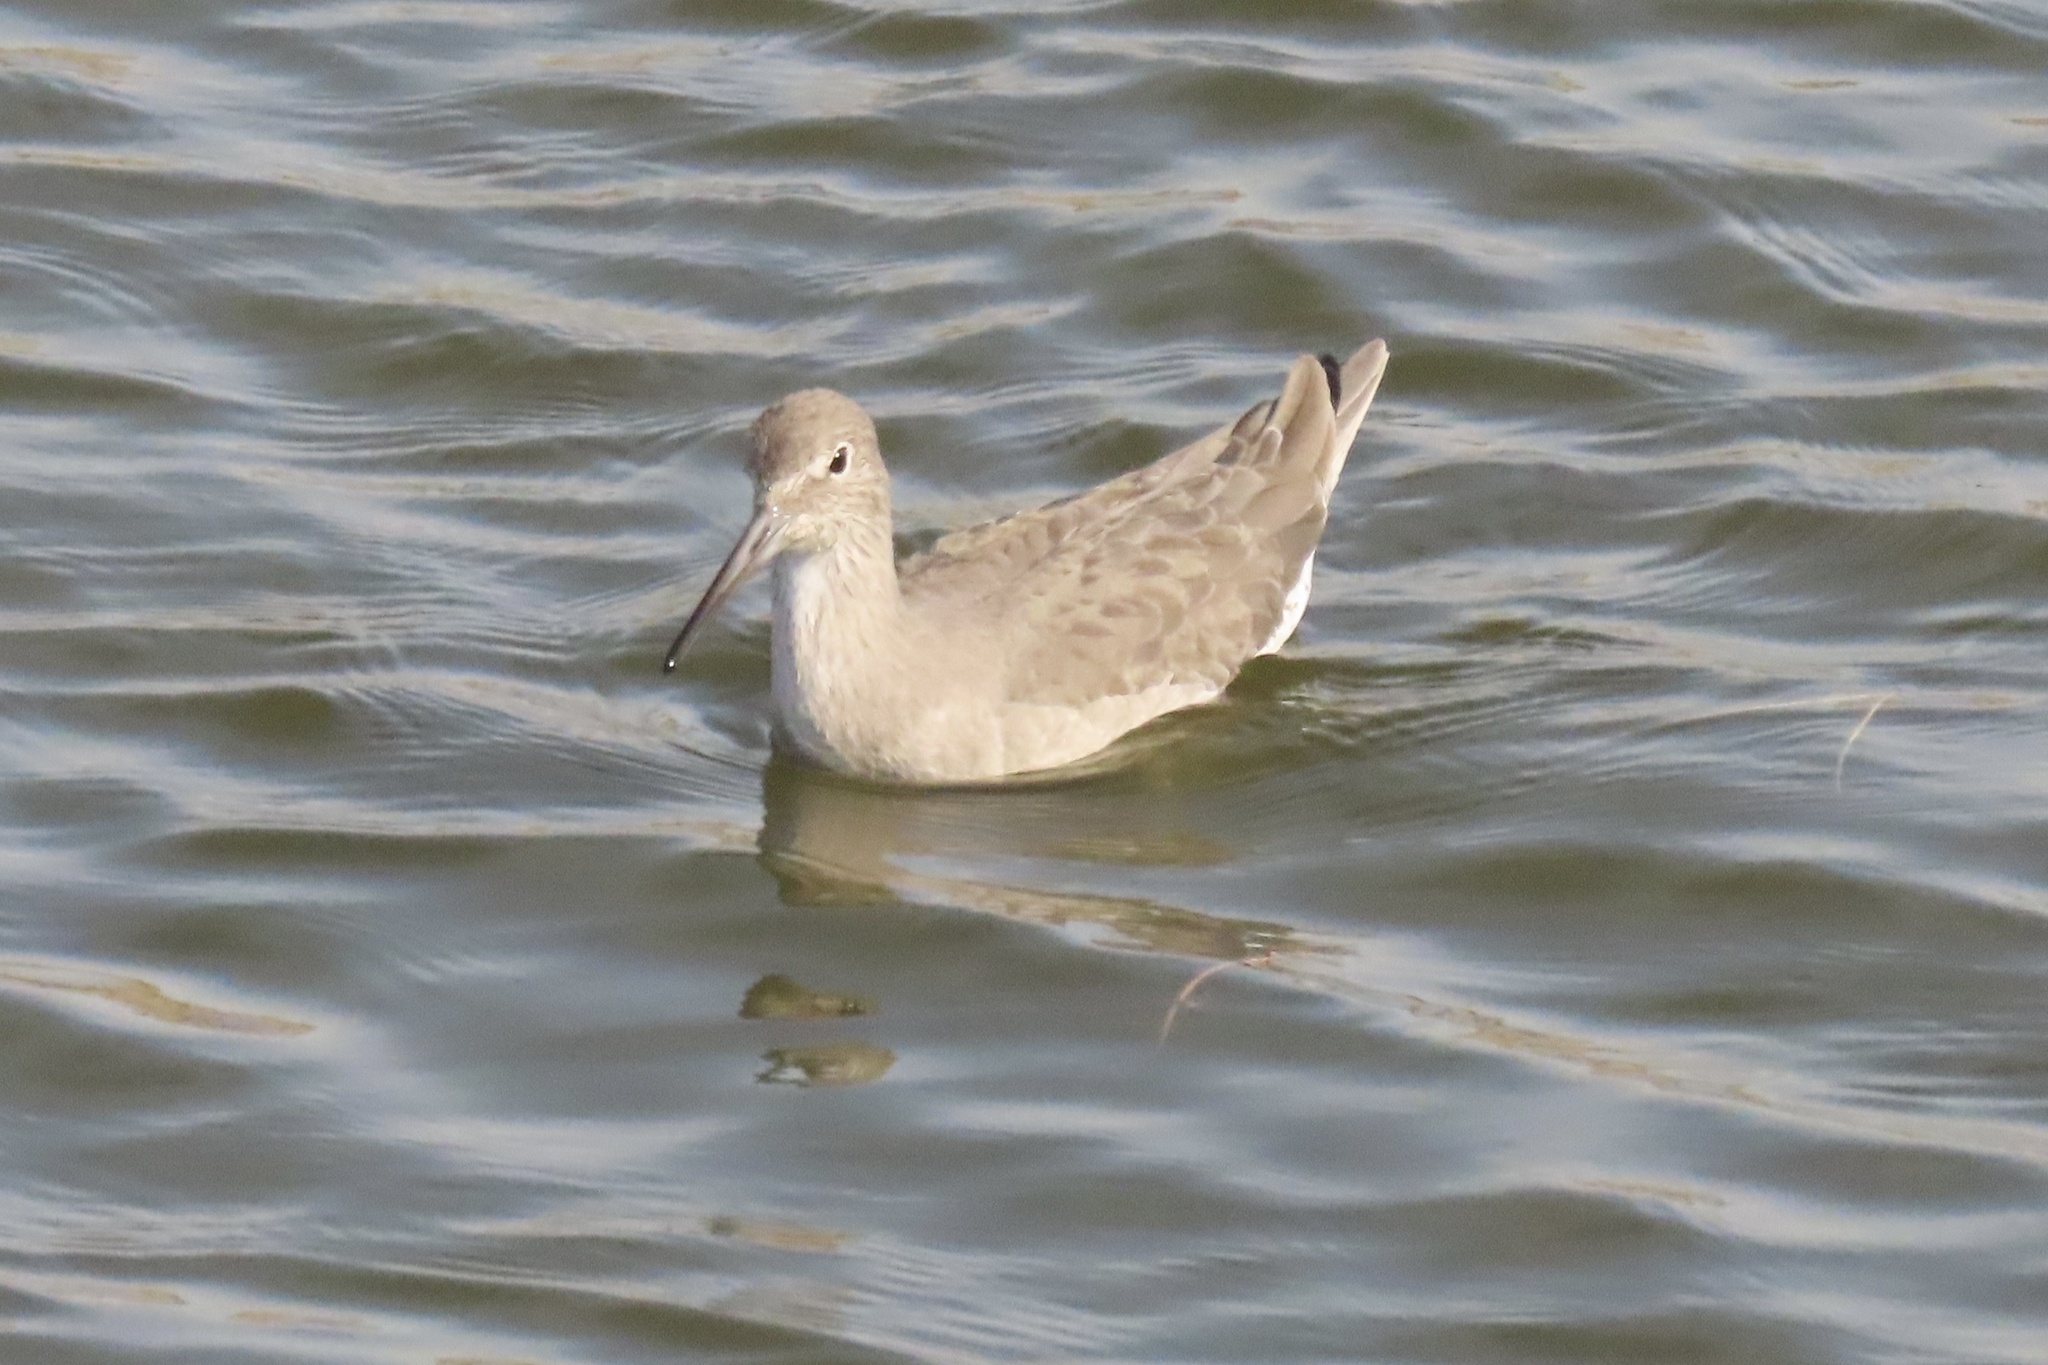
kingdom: Animalia
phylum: Chordata
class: Aves
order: Charadriiformes
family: Scolopacidae
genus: Tringa
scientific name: Tringa semipalmata
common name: Willet
